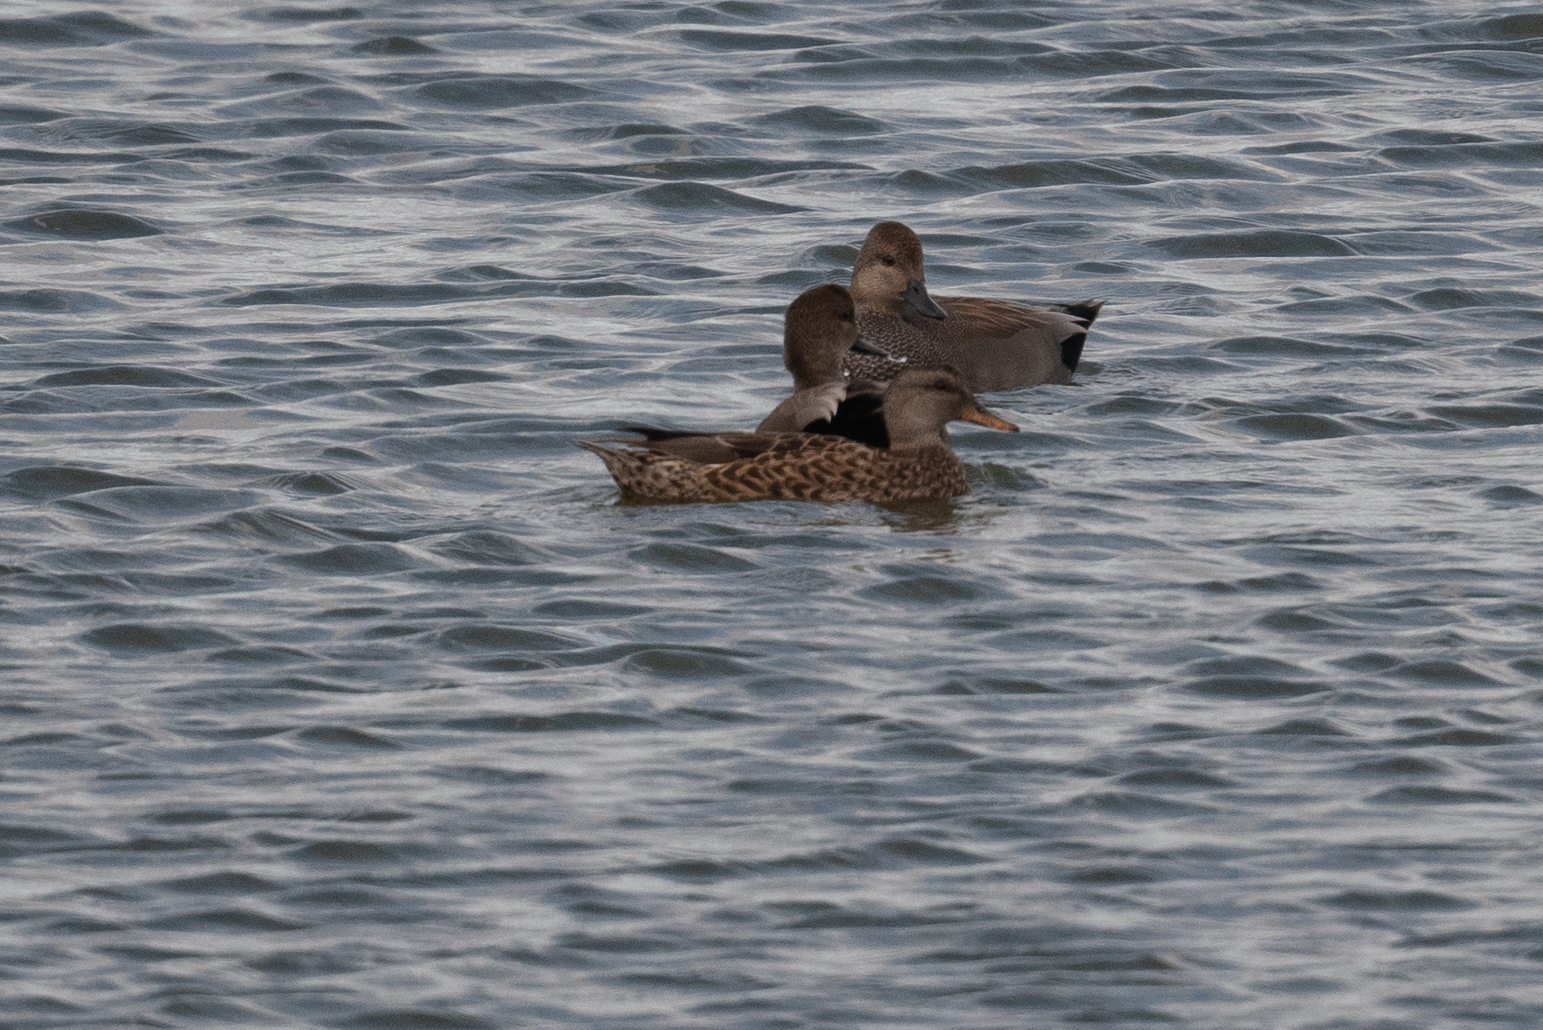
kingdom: Animalia
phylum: Chordata
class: Aves
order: Anseriformes
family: Anatidae
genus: Mareca
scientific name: Mareca strepera
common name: Gadwall
